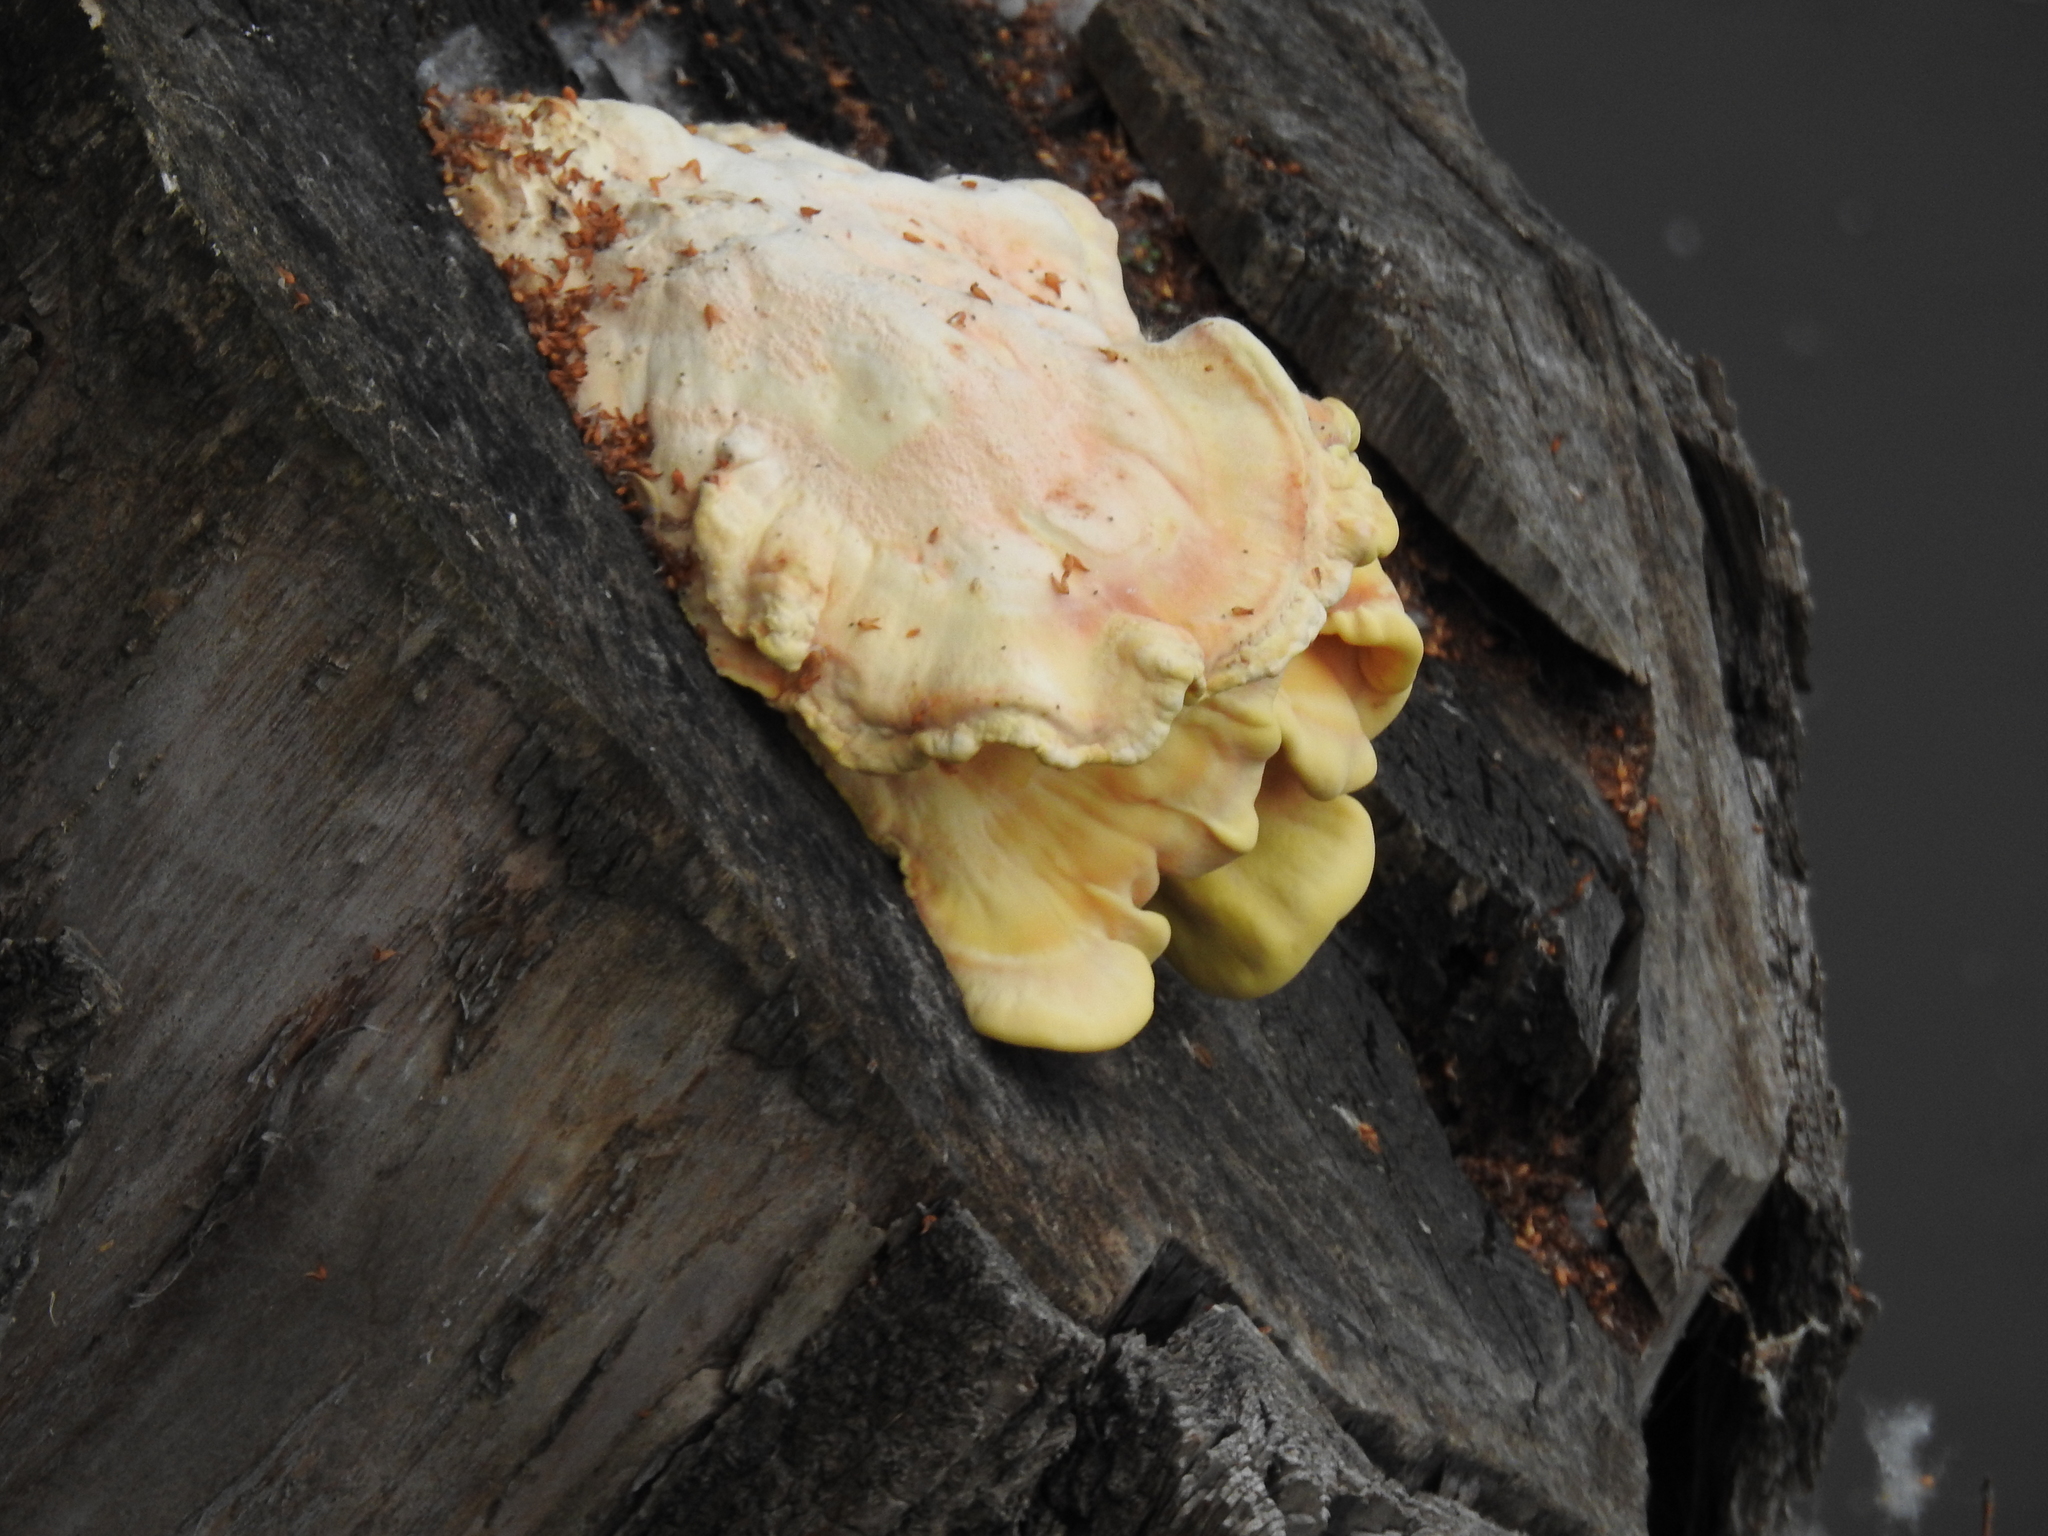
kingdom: Fungi
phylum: Basidiomycota
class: Agaricomycetes
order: Polyporales
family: Laetiporaceae
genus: Laetiporus
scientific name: Laetiporus sulphureus
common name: Chicken of the woods
